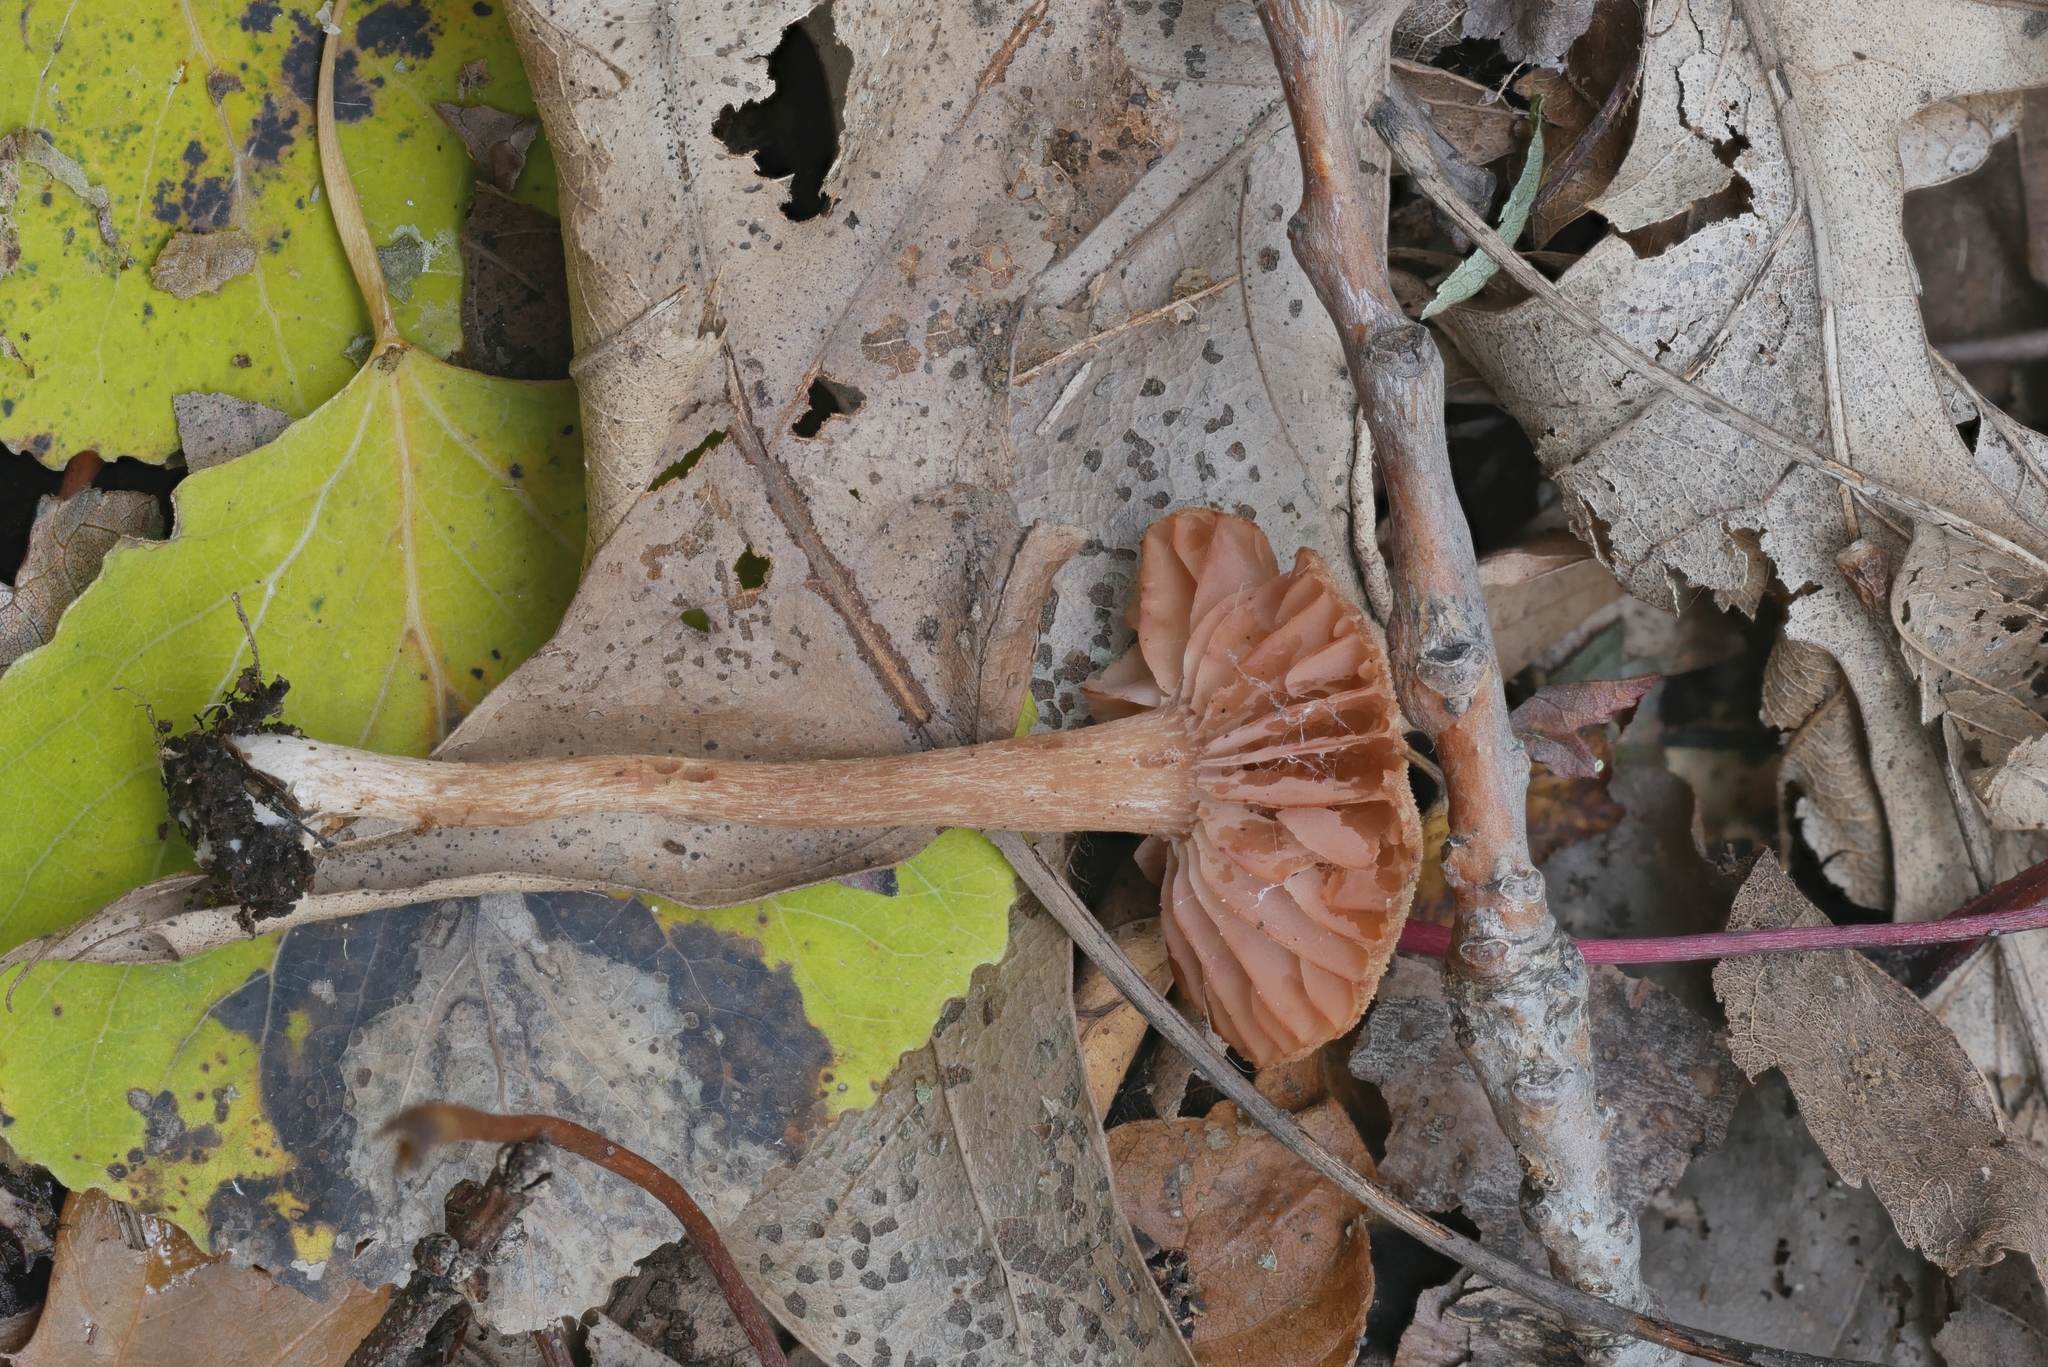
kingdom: Fungi
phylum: Basidiomycota
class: Agaricomycetes
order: Agaricales
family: Hydnangiaceae
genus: Laccaria
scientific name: Laccaria laccata
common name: Deceiver
